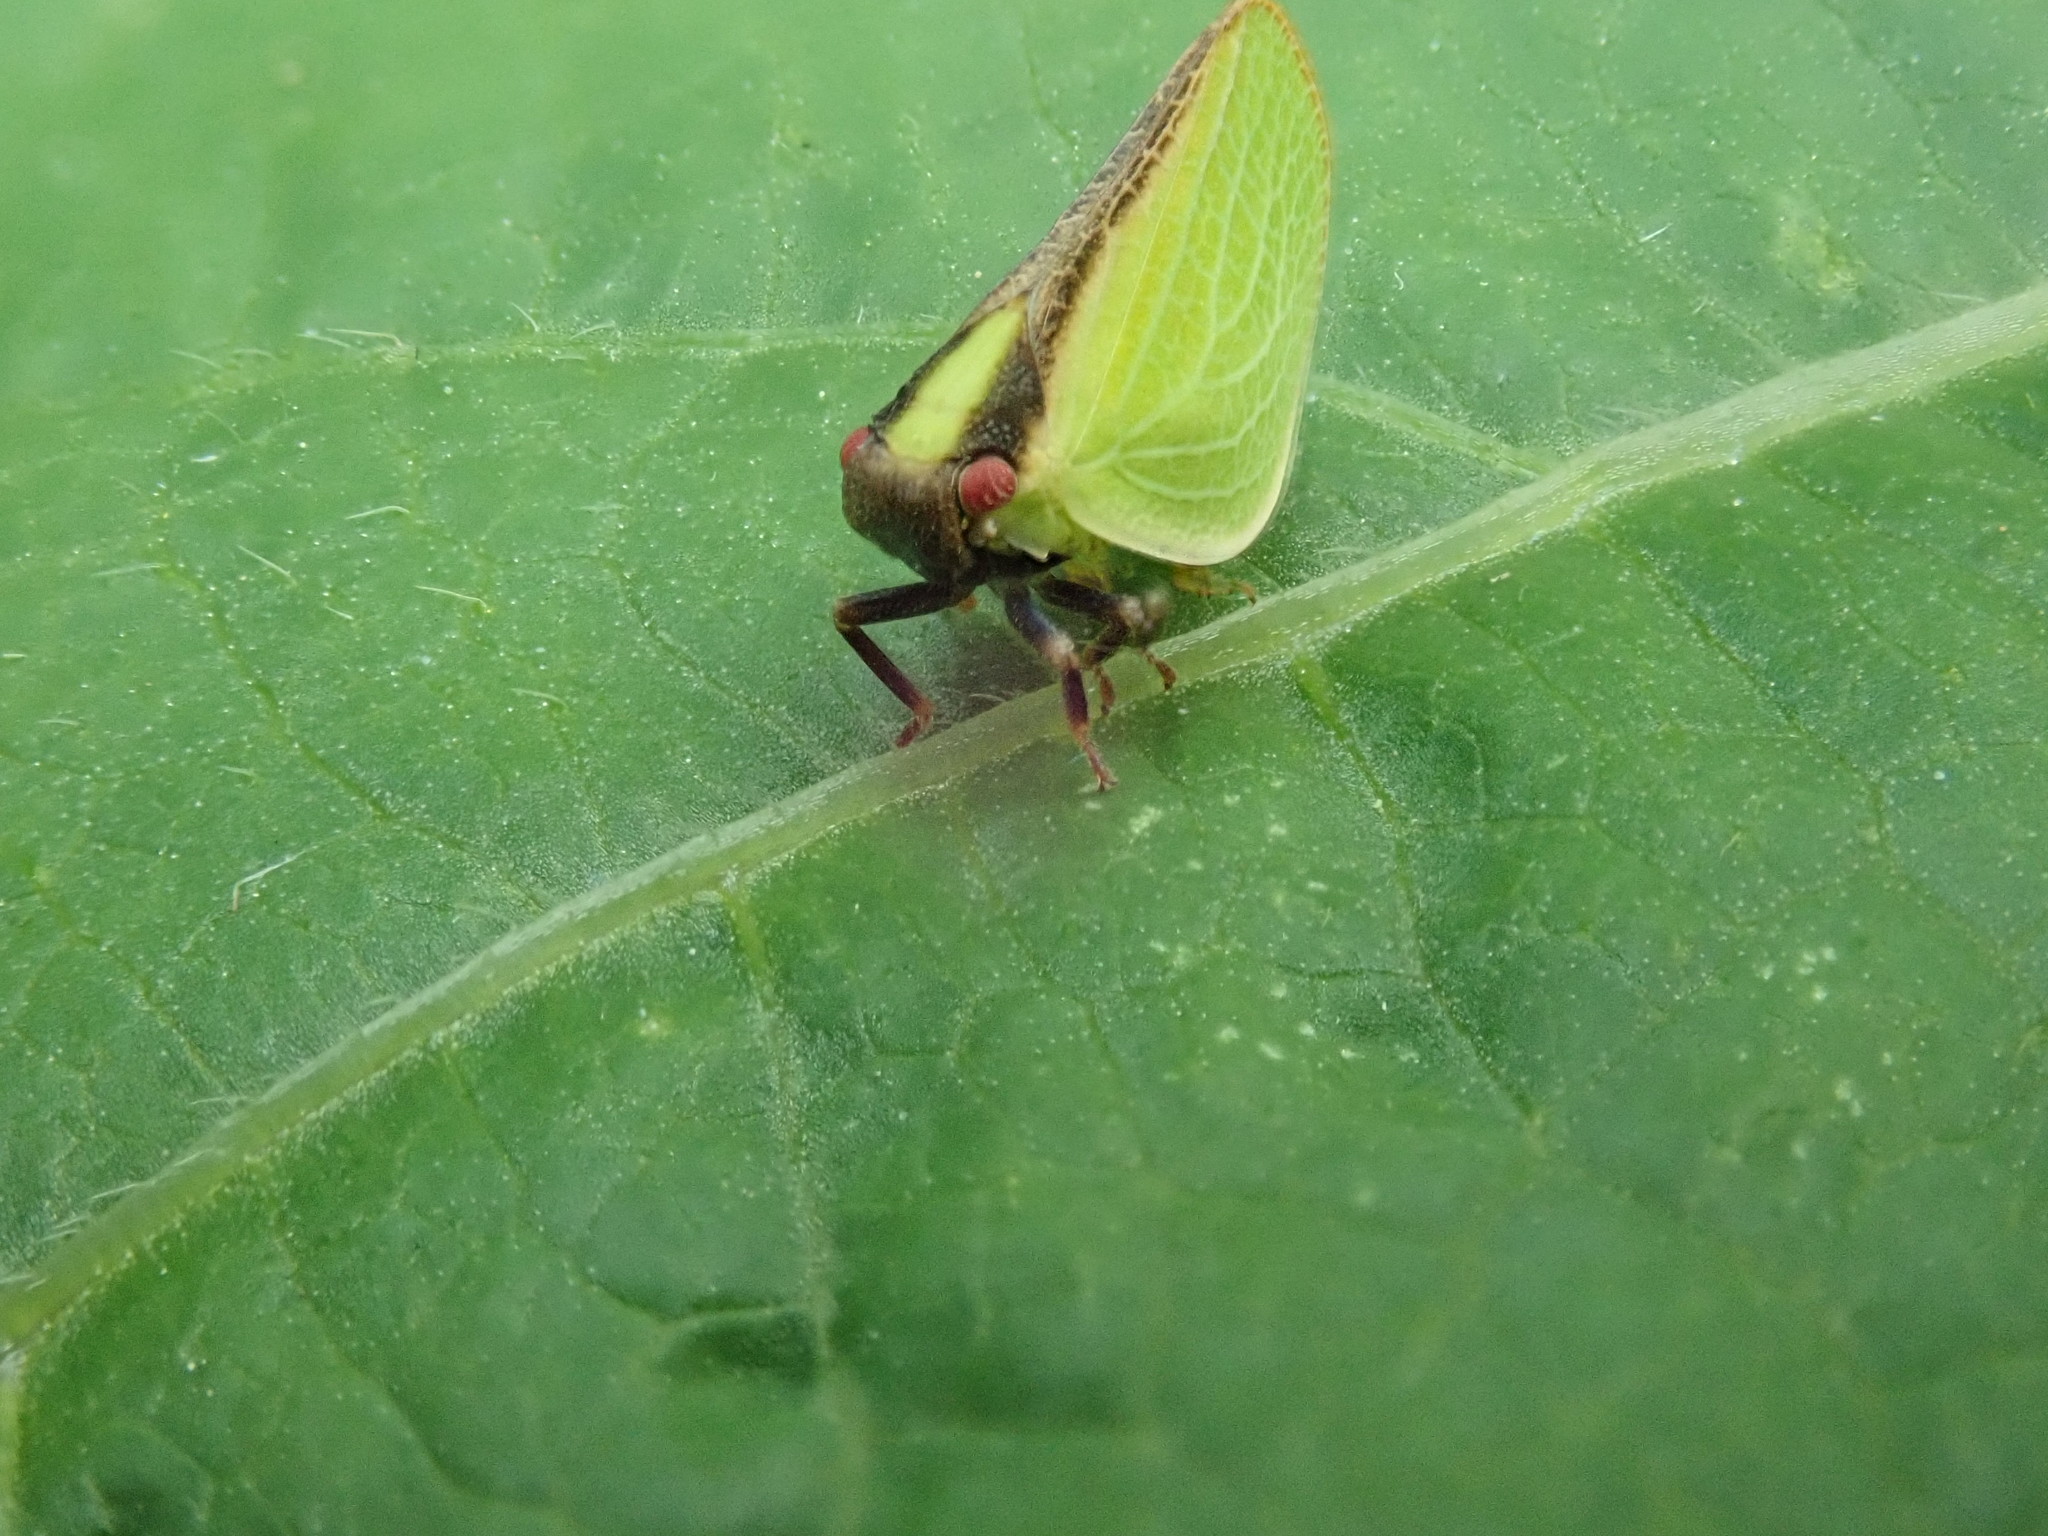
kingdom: Animalia
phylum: Arthropoda
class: Insecta
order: Hemiptera
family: Acanaloniidae
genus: Acanalonia
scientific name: Acanalonia bivittata
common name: Two-striped planthopper
